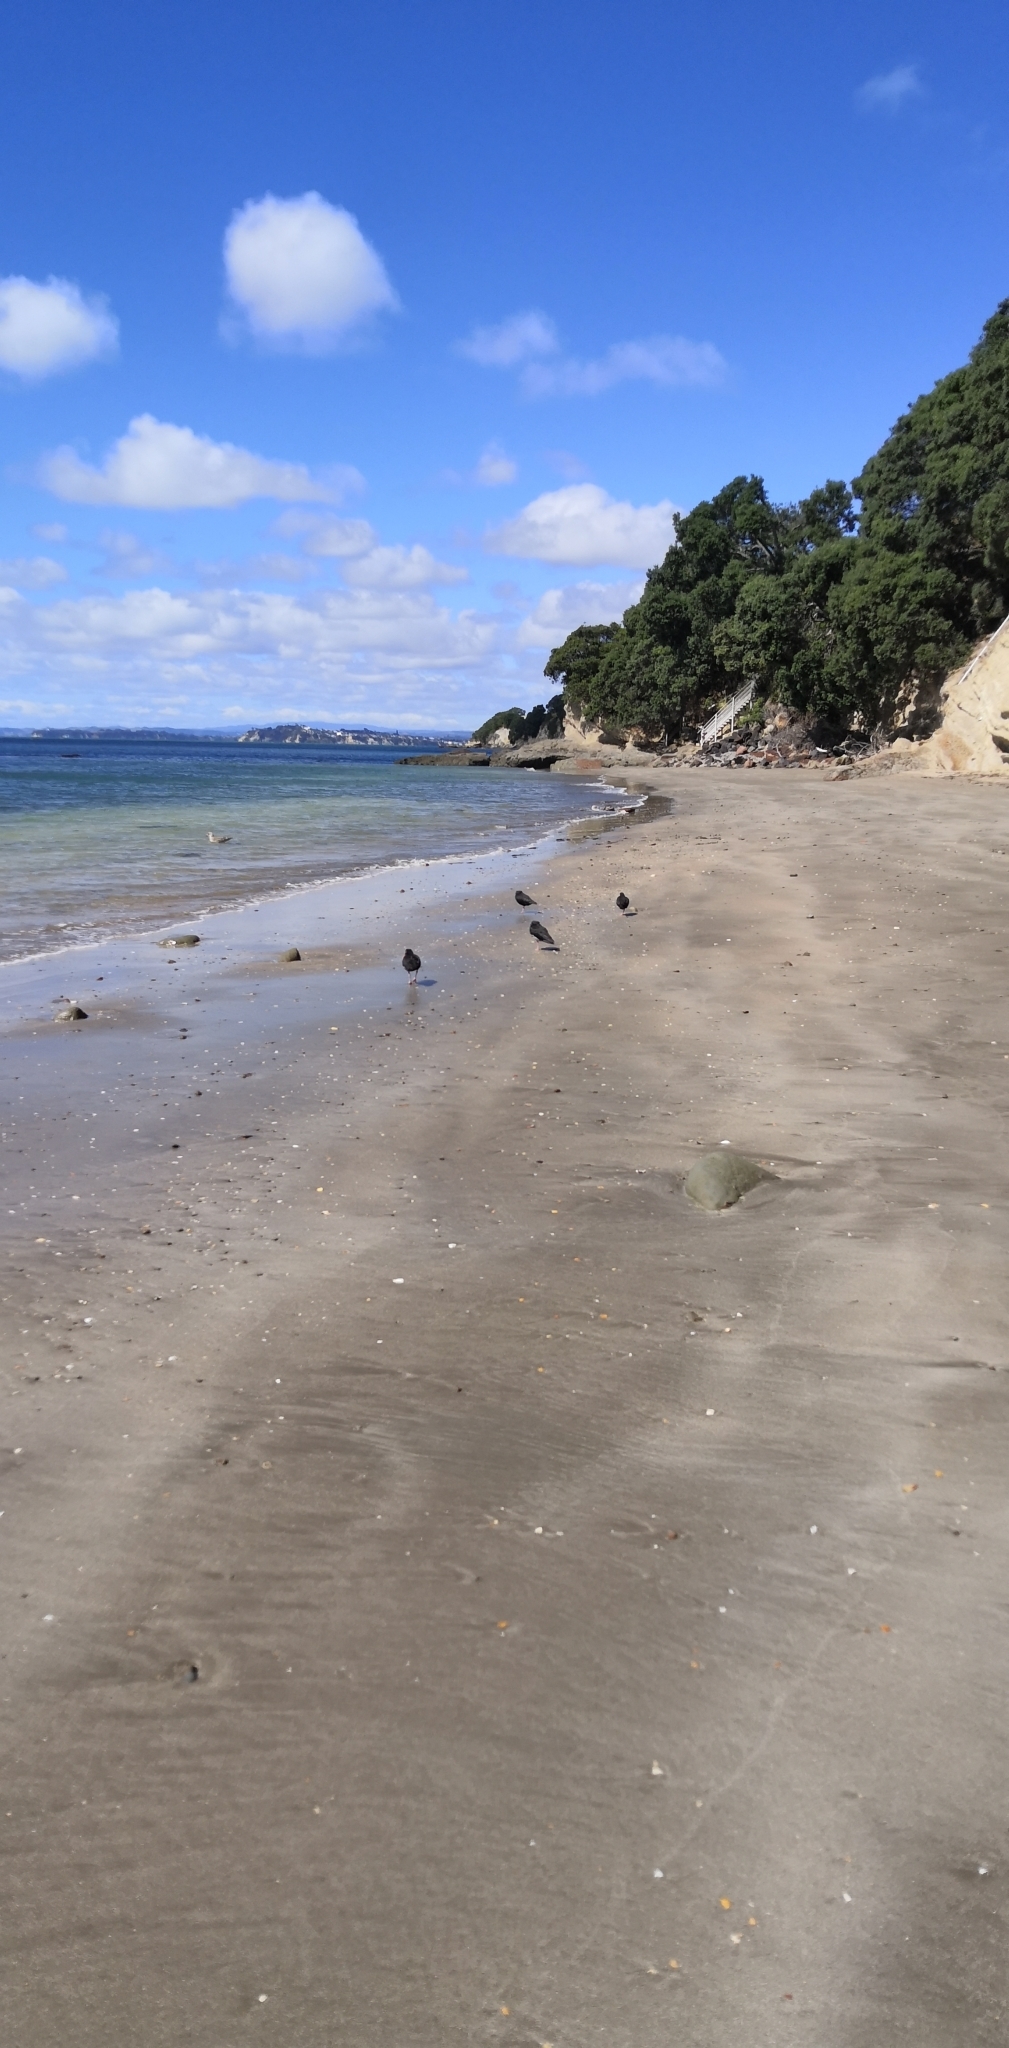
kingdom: Animalia
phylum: Chordata
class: Aves
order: Charadriiformes
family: Haematopodidae
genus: Haematopus
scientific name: Haematopus unicolor
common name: Variable oystercatcher
